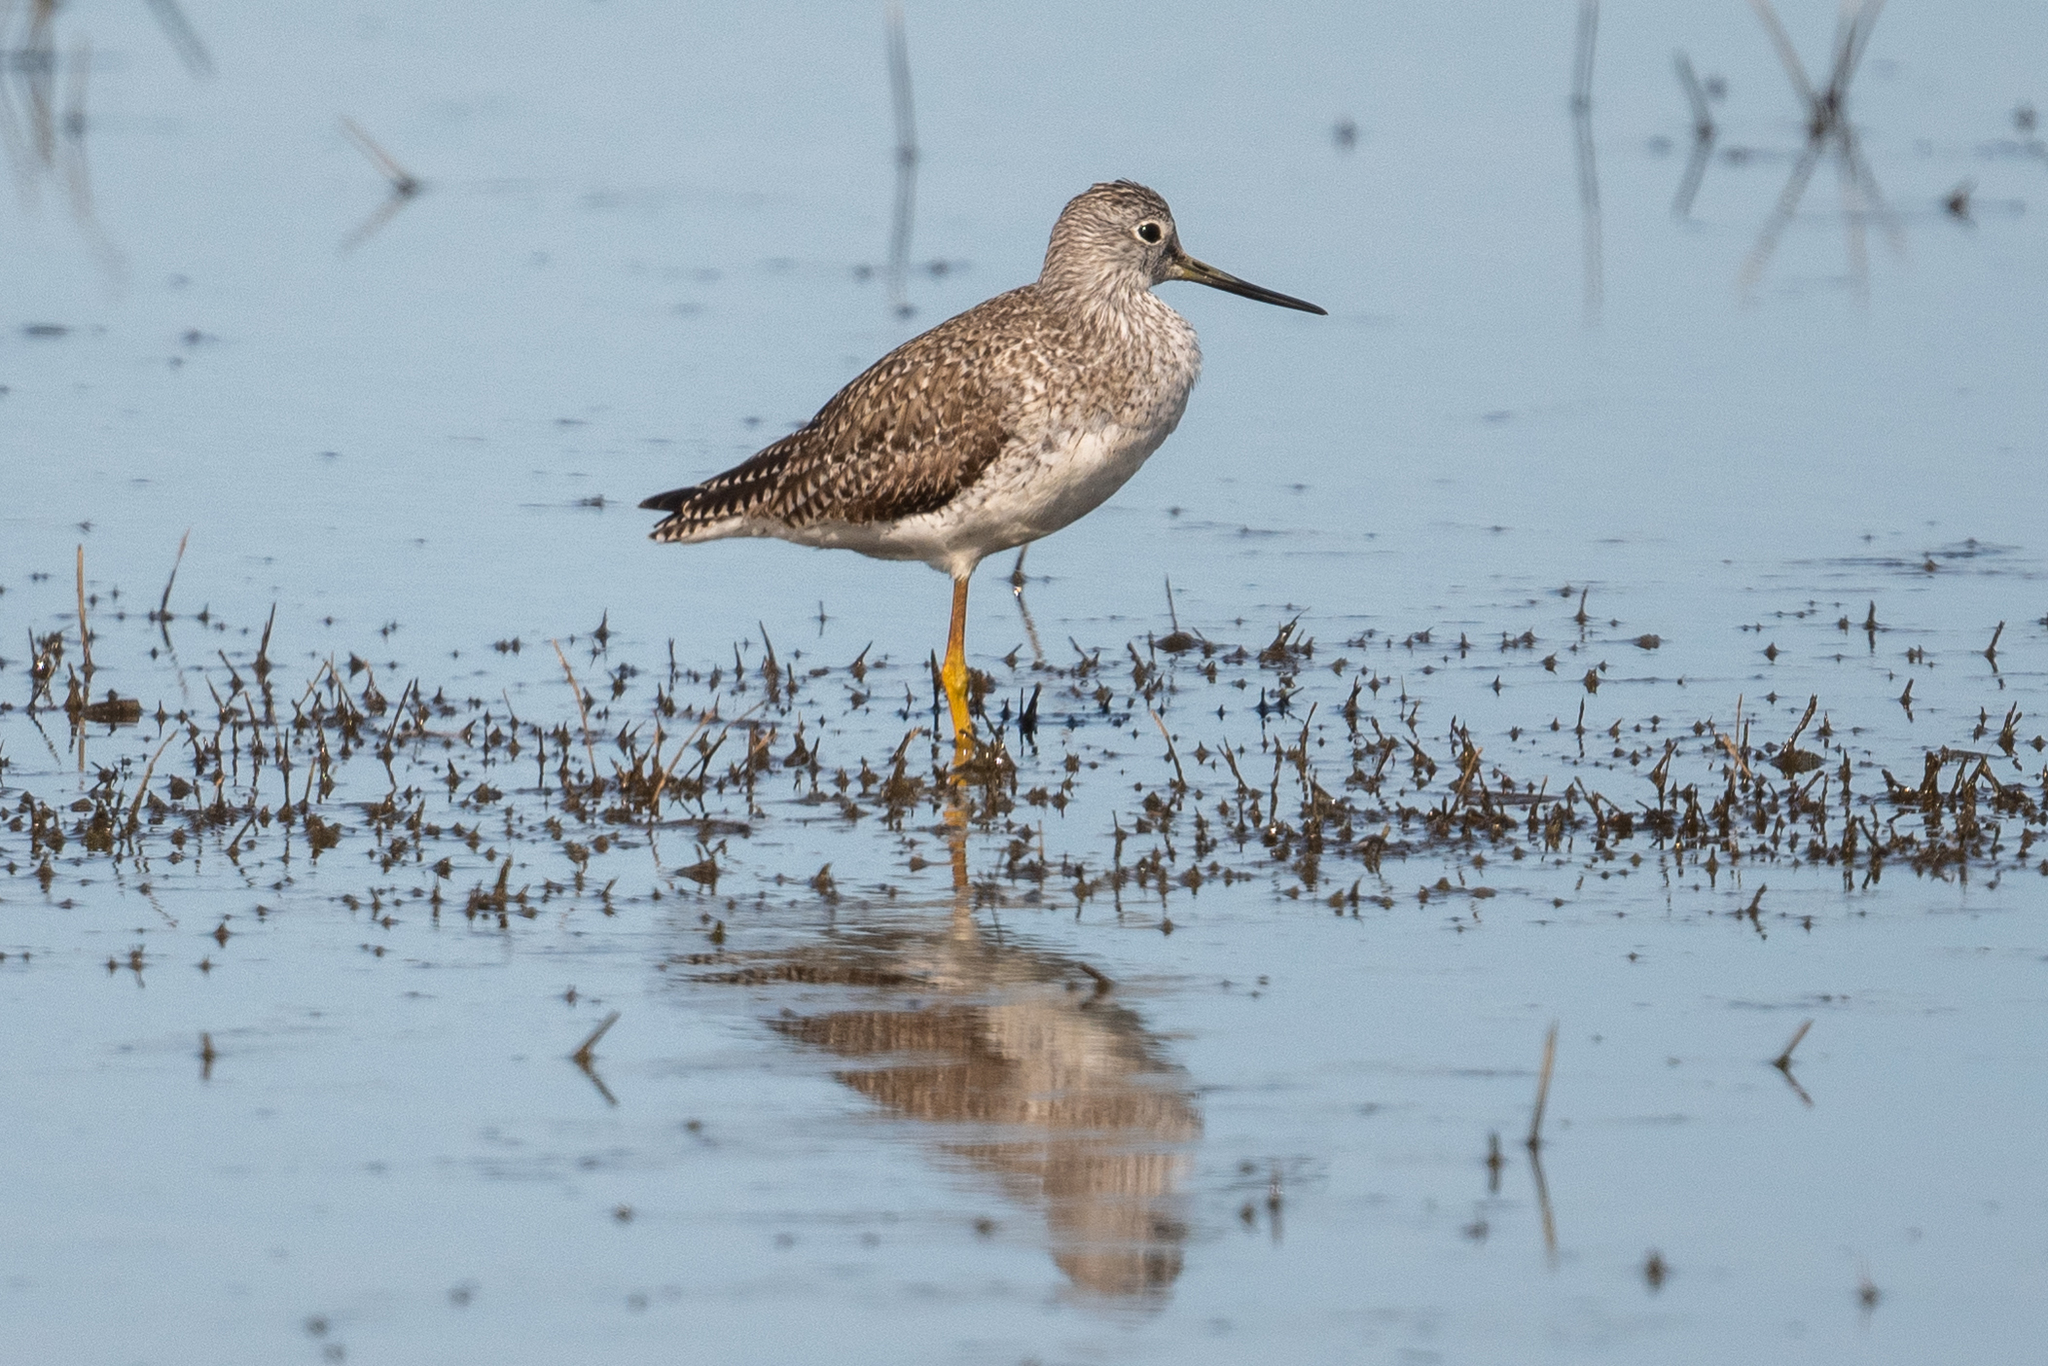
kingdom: Animalia
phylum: Chordata
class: Aves
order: Charadriiformes
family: Scolopacidae
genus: Tringa
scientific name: Tringa melanoleuca
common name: Greater yellowlegs
